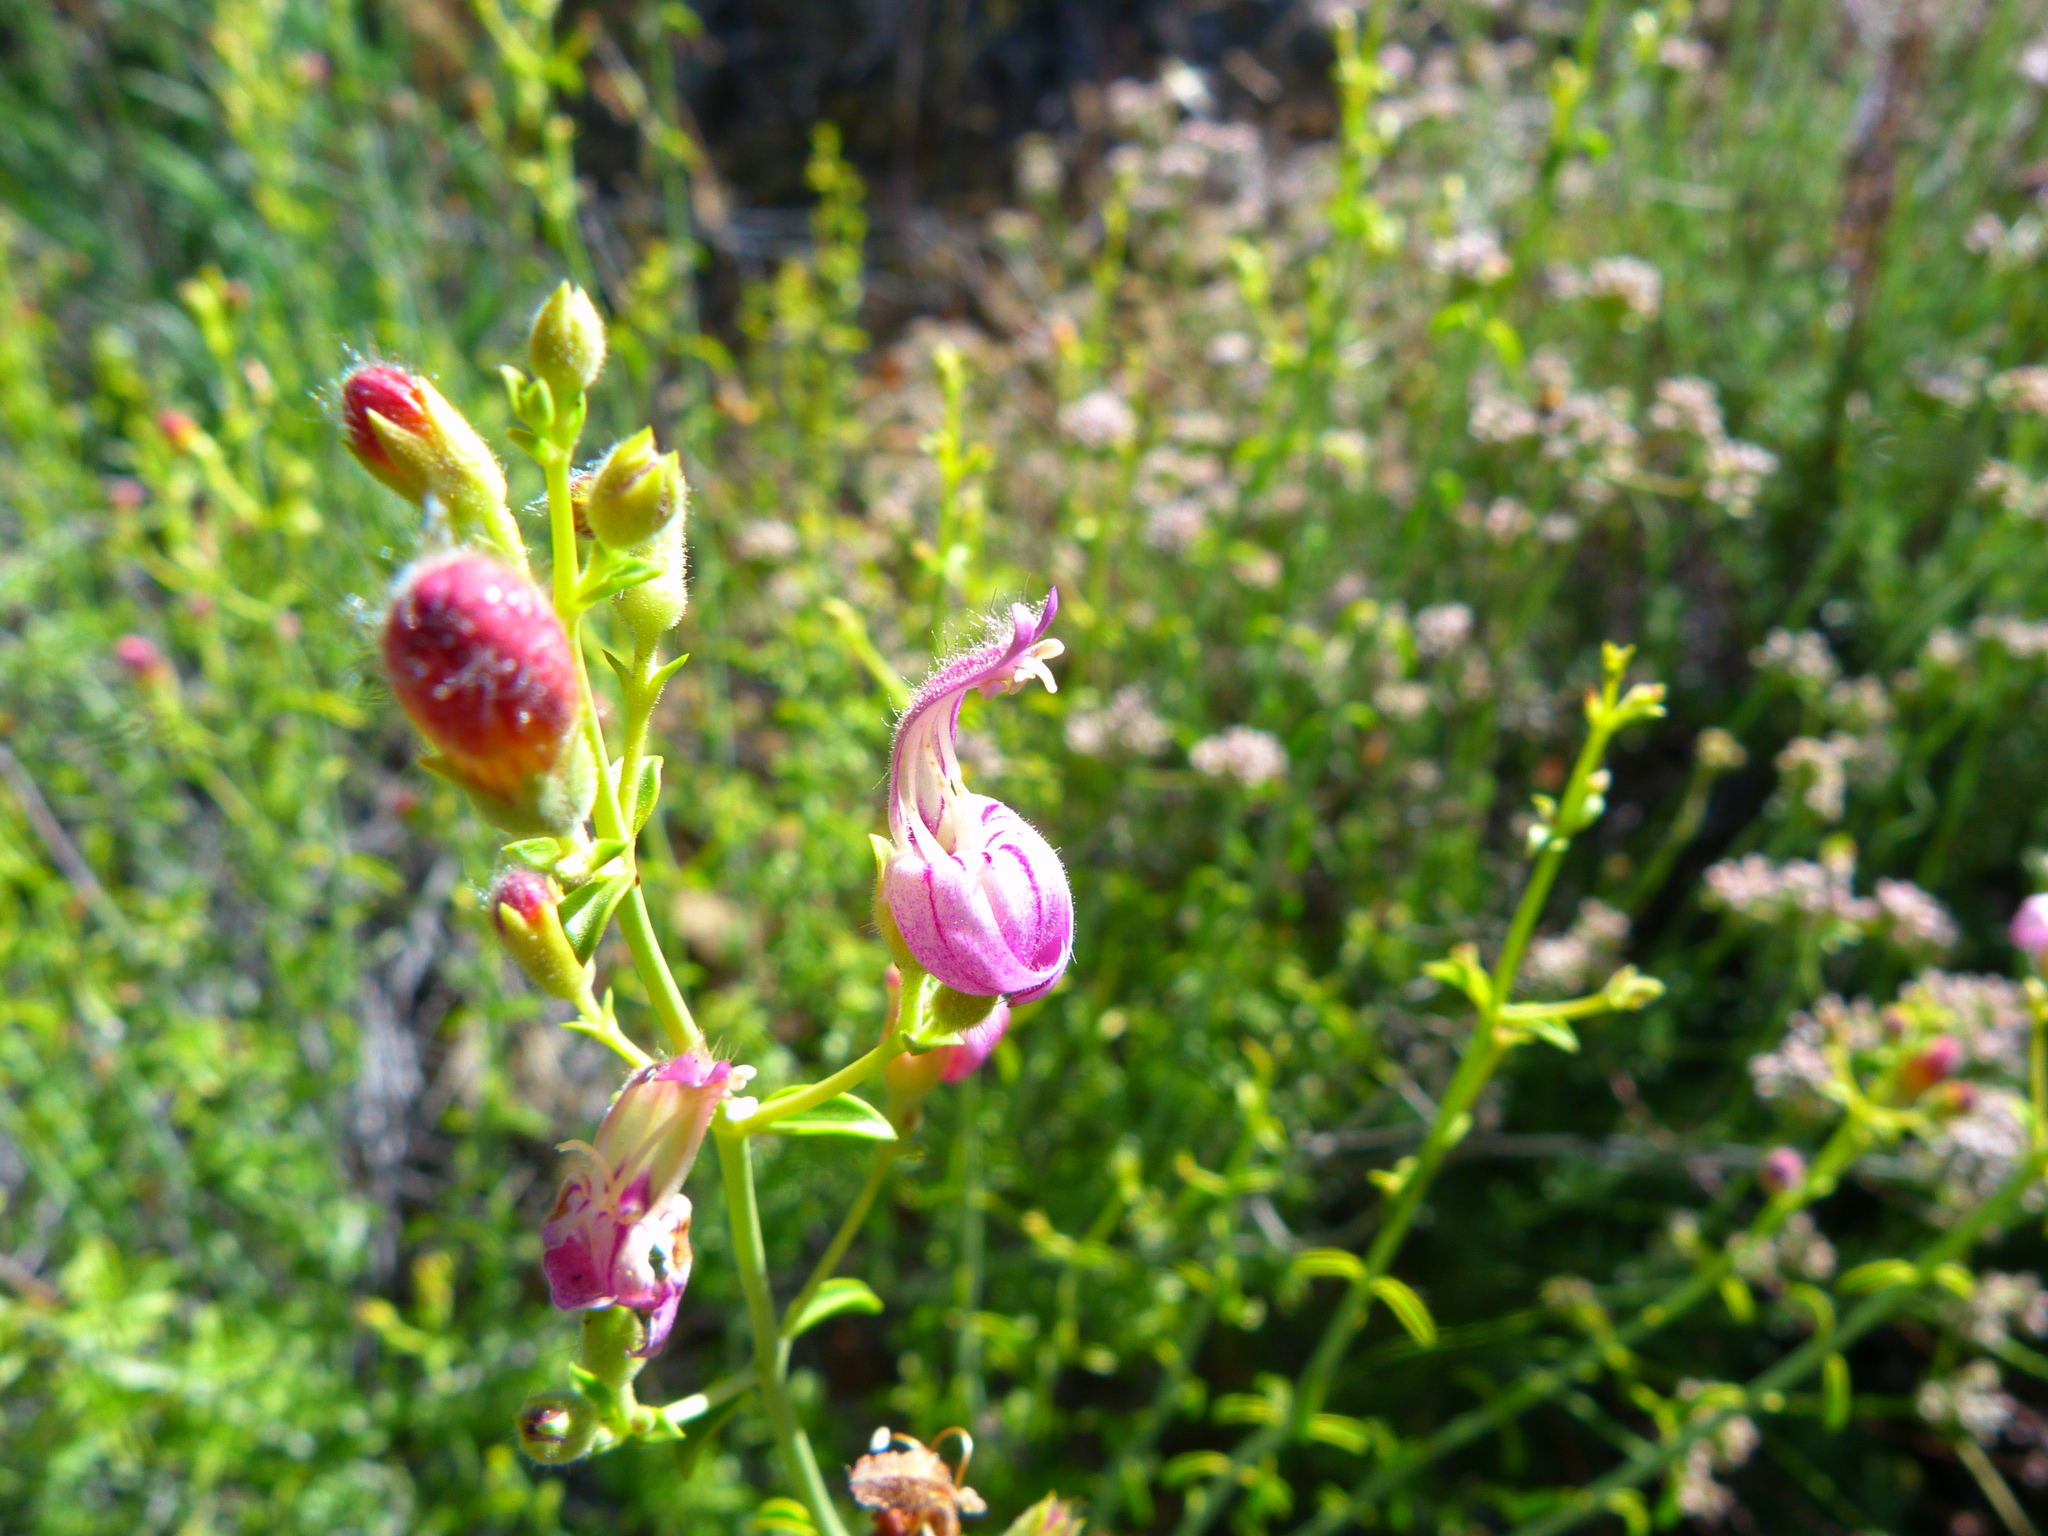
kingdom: Plantae
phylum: Tracheophyta
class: Magnoliopsida
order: Lamiales
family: Plantaginaceae
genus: Keckiella
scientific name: Keckiella breviflora
